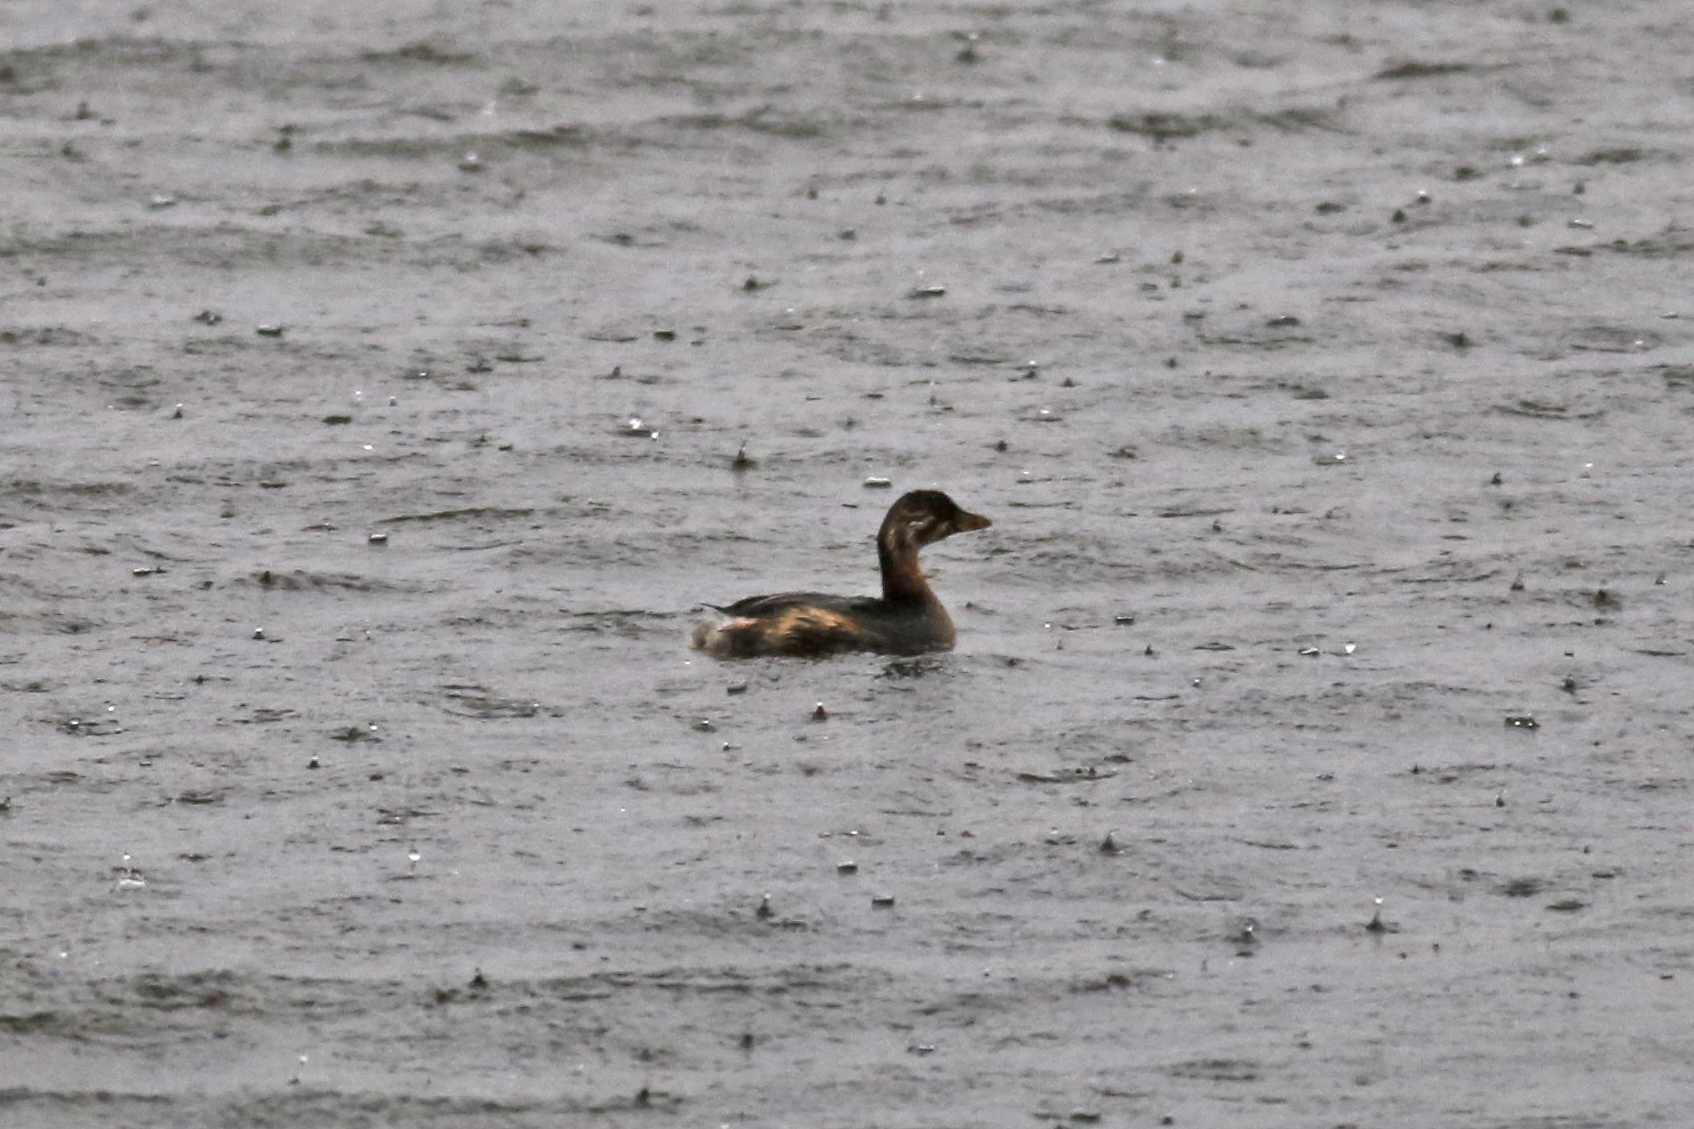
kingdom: Animalia
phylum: Chordata
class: Aves
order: Podicipediformes
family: Podicipedidae
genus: Podilymbus
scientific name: Podilymbus podiceps
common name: Pied-billed grebe
